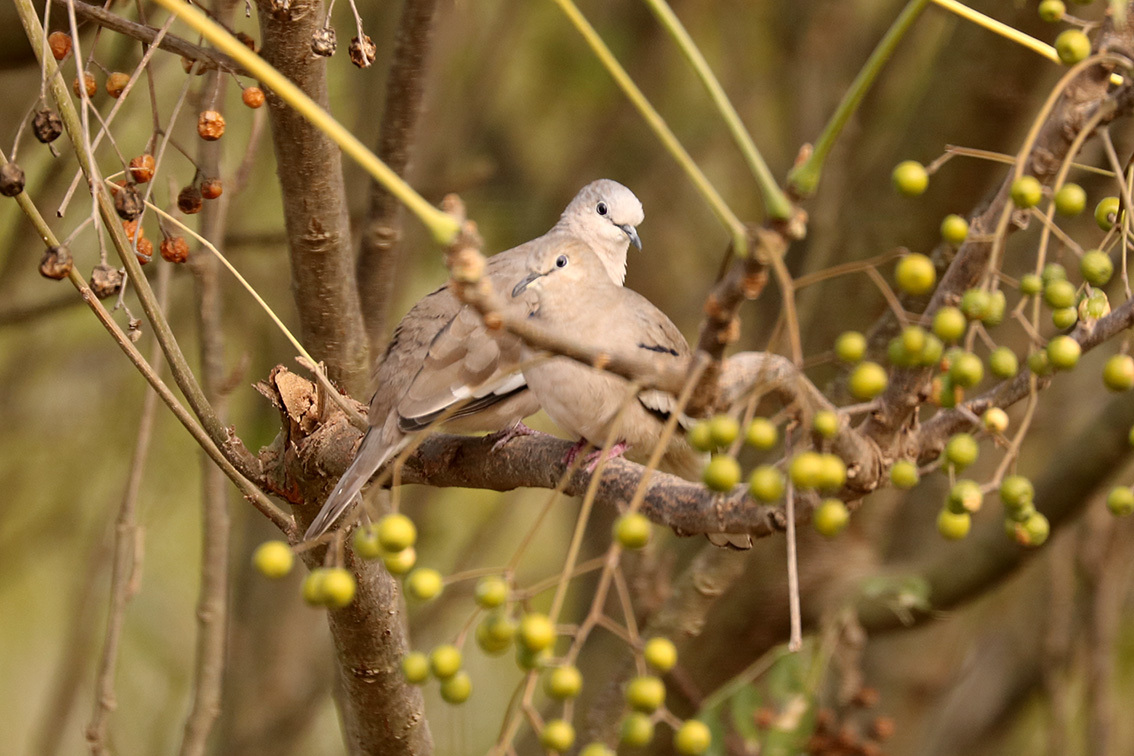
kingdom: Animalia
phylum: Chordata
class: Aves
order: Columbiformes
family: Columbidae
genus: Columbina
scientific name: Columbina picui
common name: Picui ground dove
